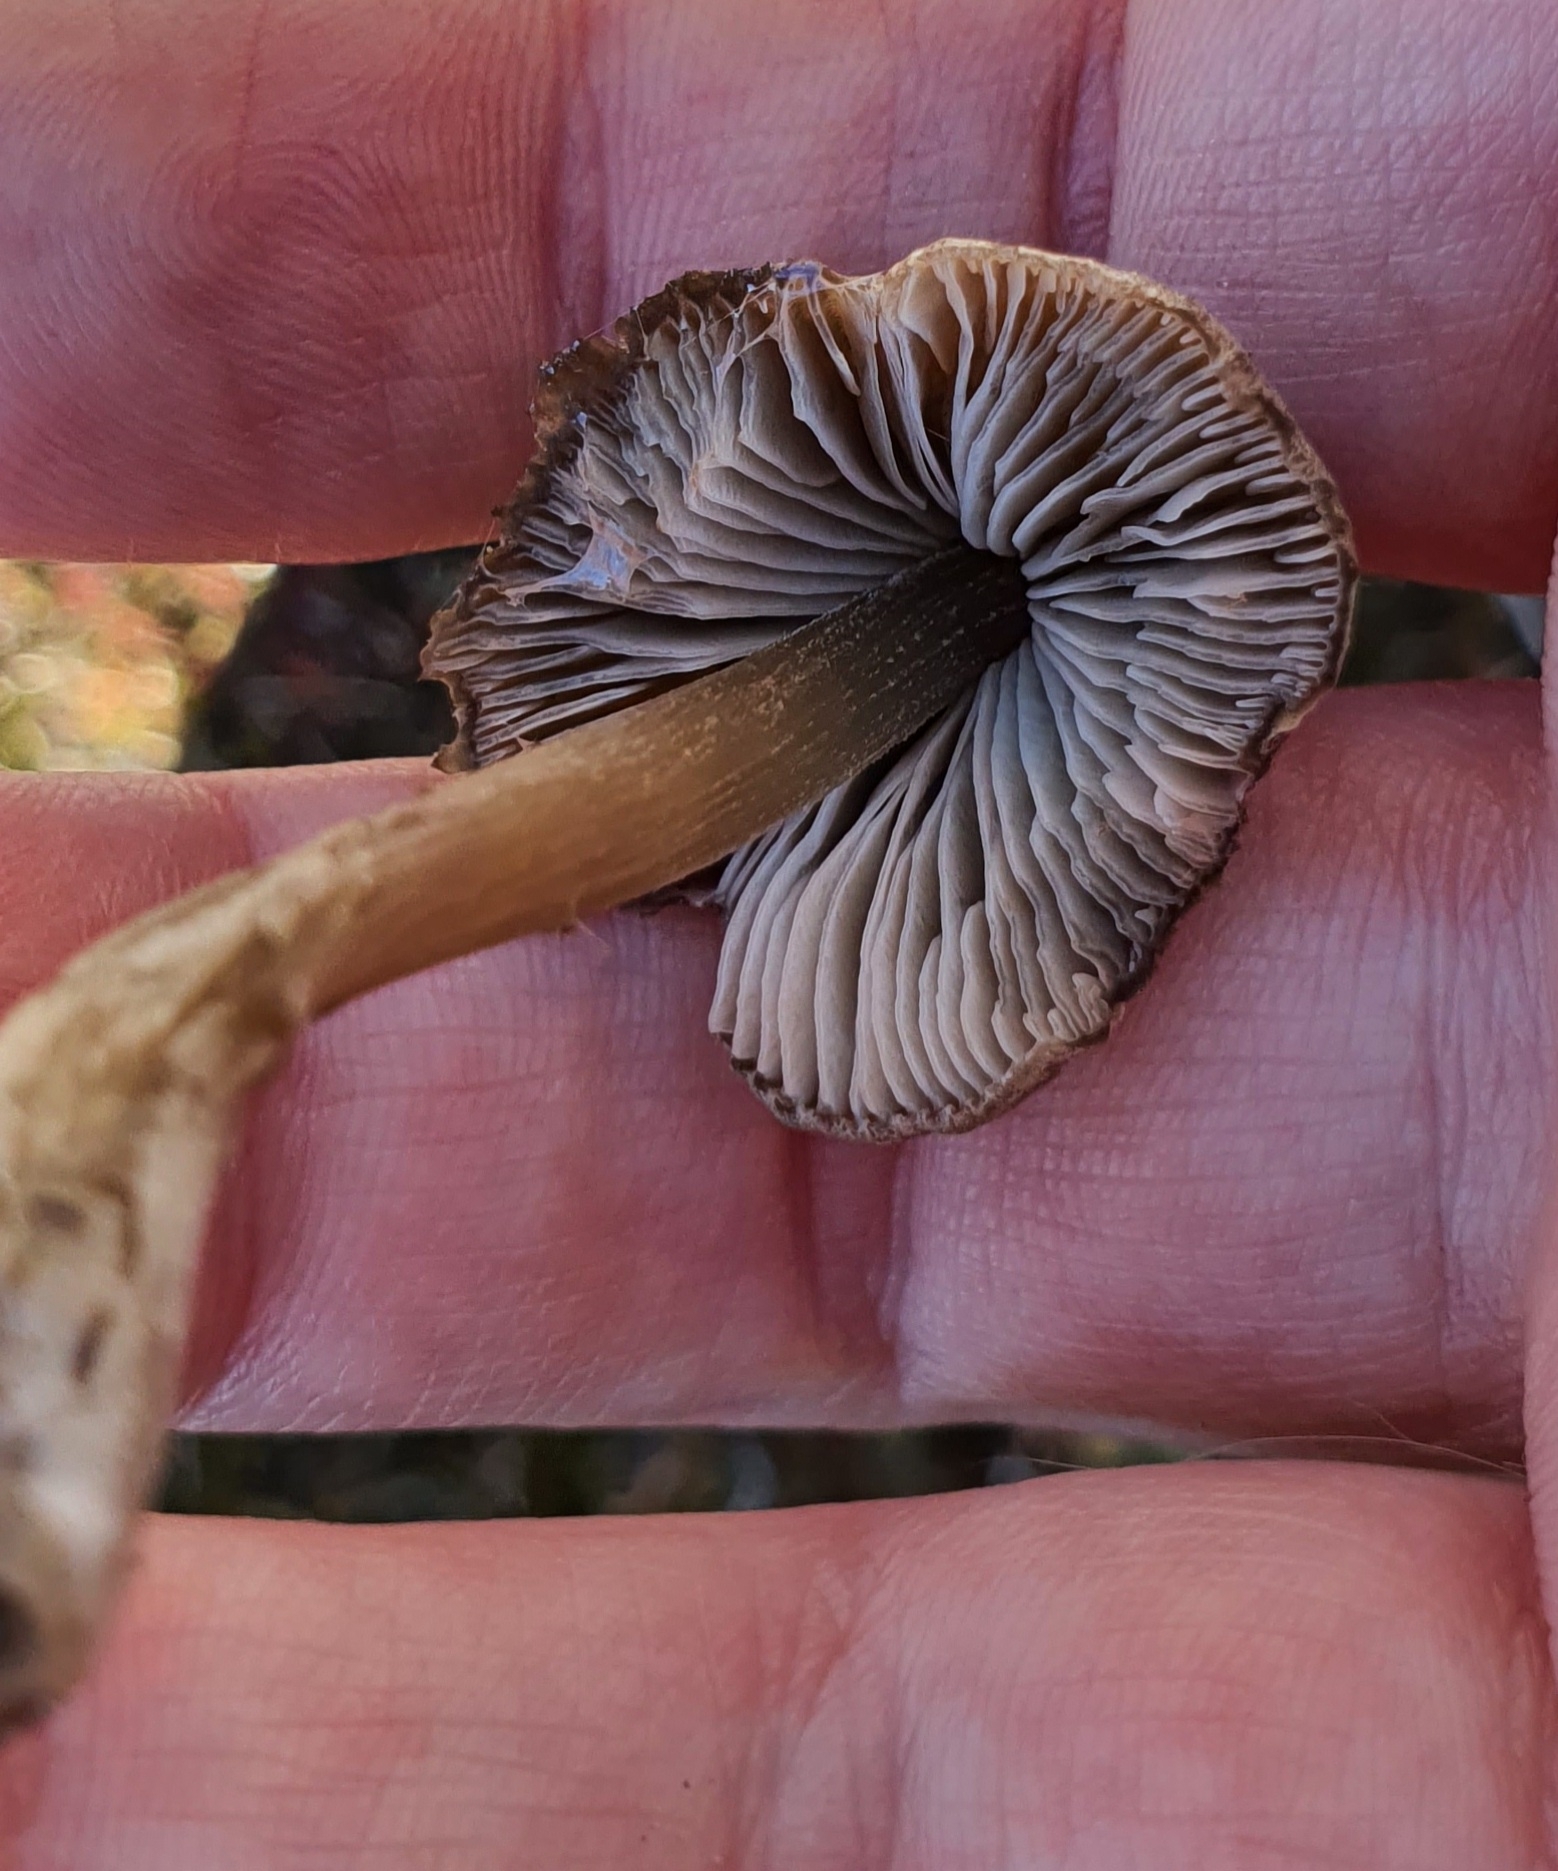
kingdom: Fungi
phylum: Basidiomycota
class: Agaricomycetes
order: Agaricales
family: Entolomataceae
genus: Entoloma
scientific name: Entoloma perzonatum
